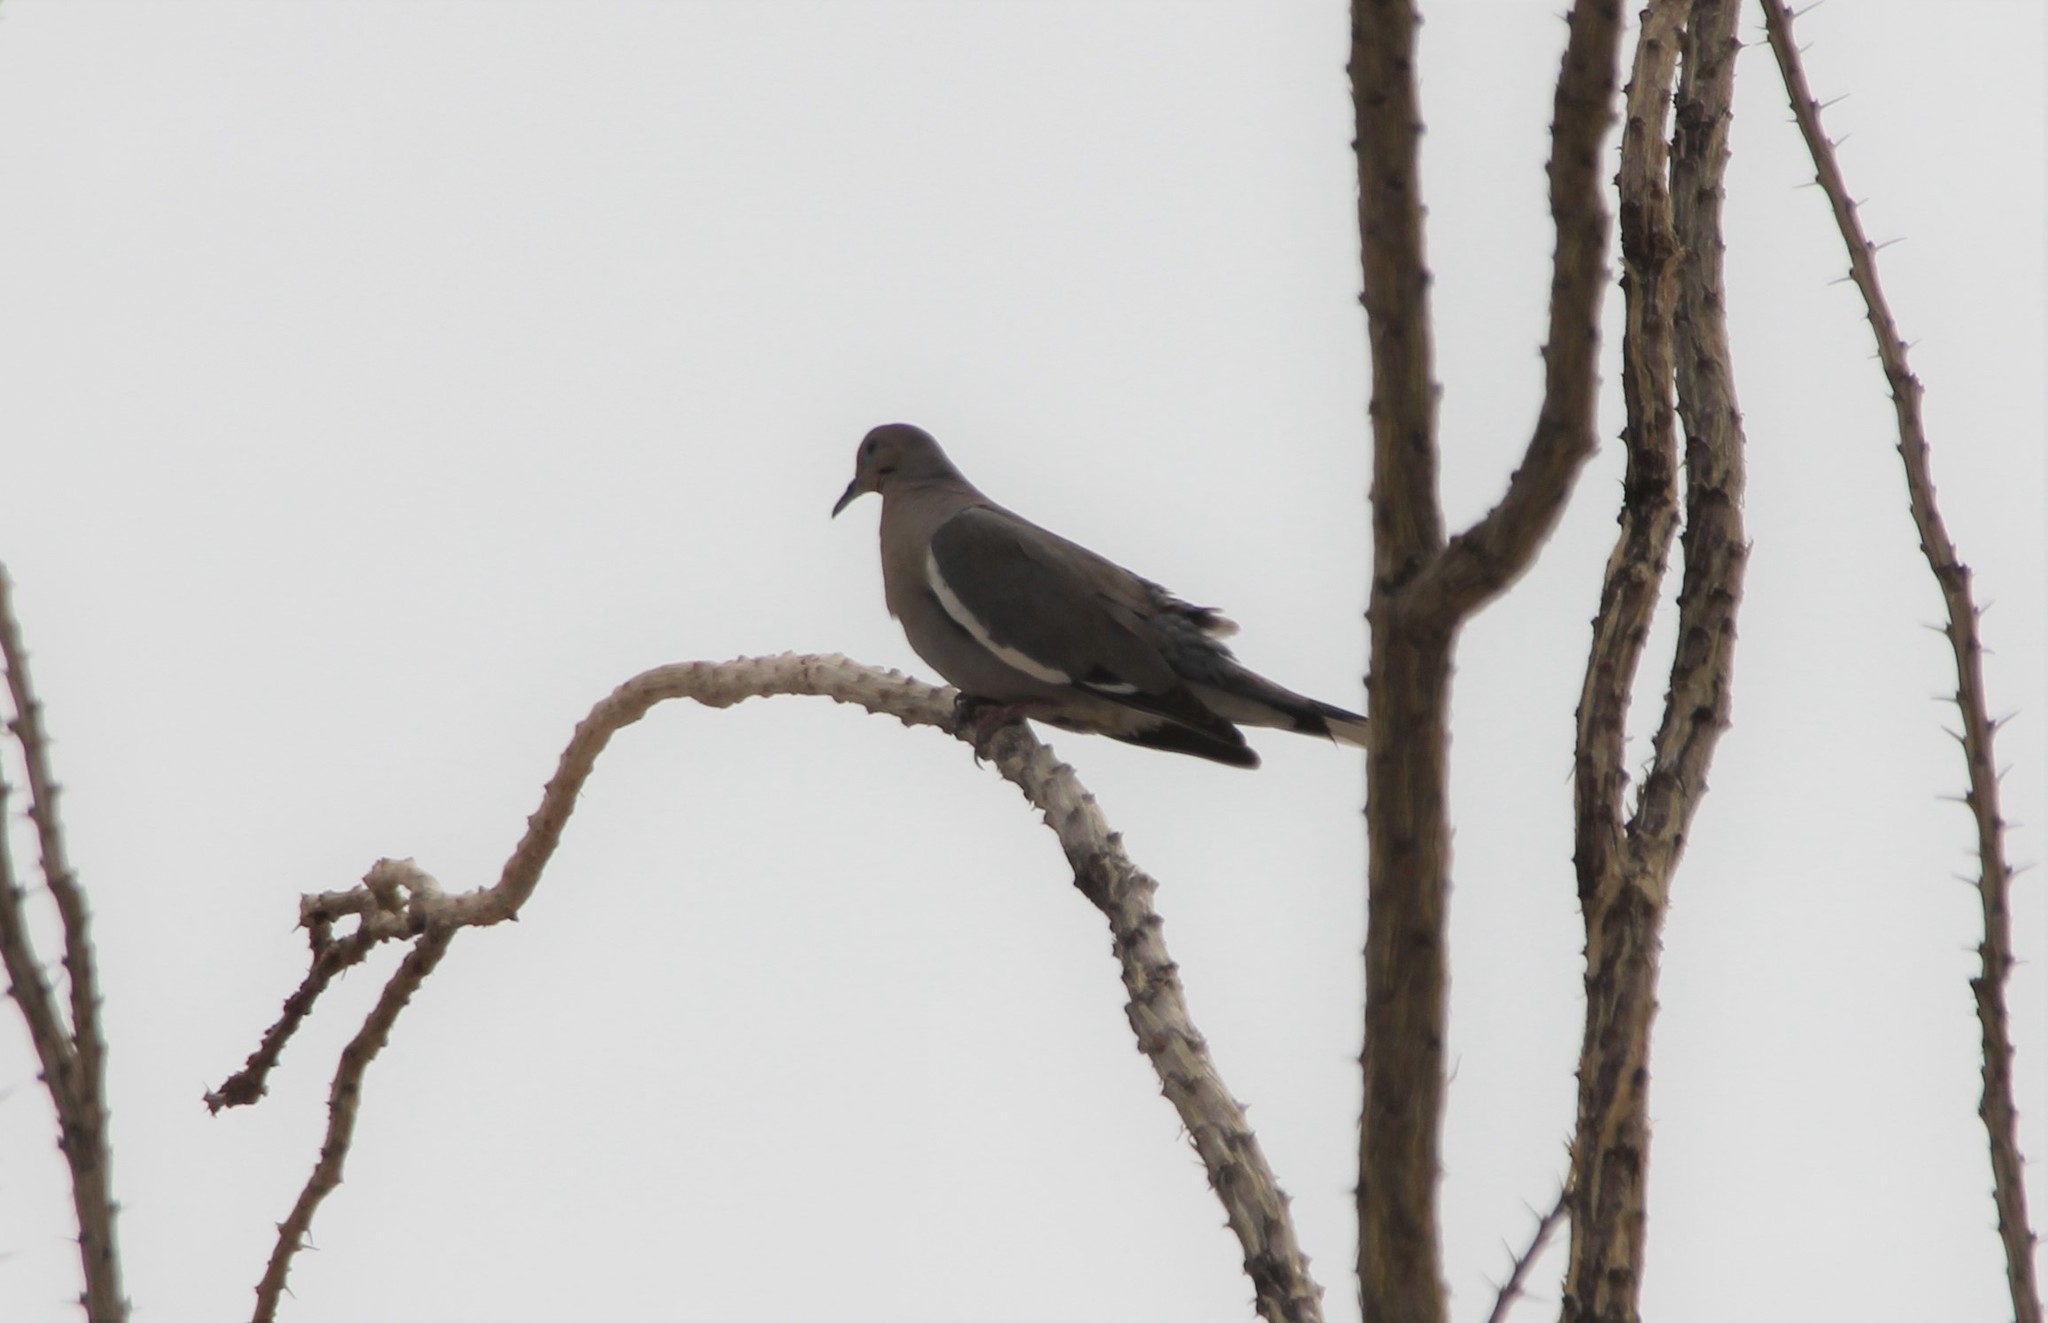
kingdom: Animalia
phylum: Chordata
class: Aves
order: Columbiformes
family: Columbidae
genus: Zenaida
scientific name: Zenaida asiatica
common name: White-winged dove
